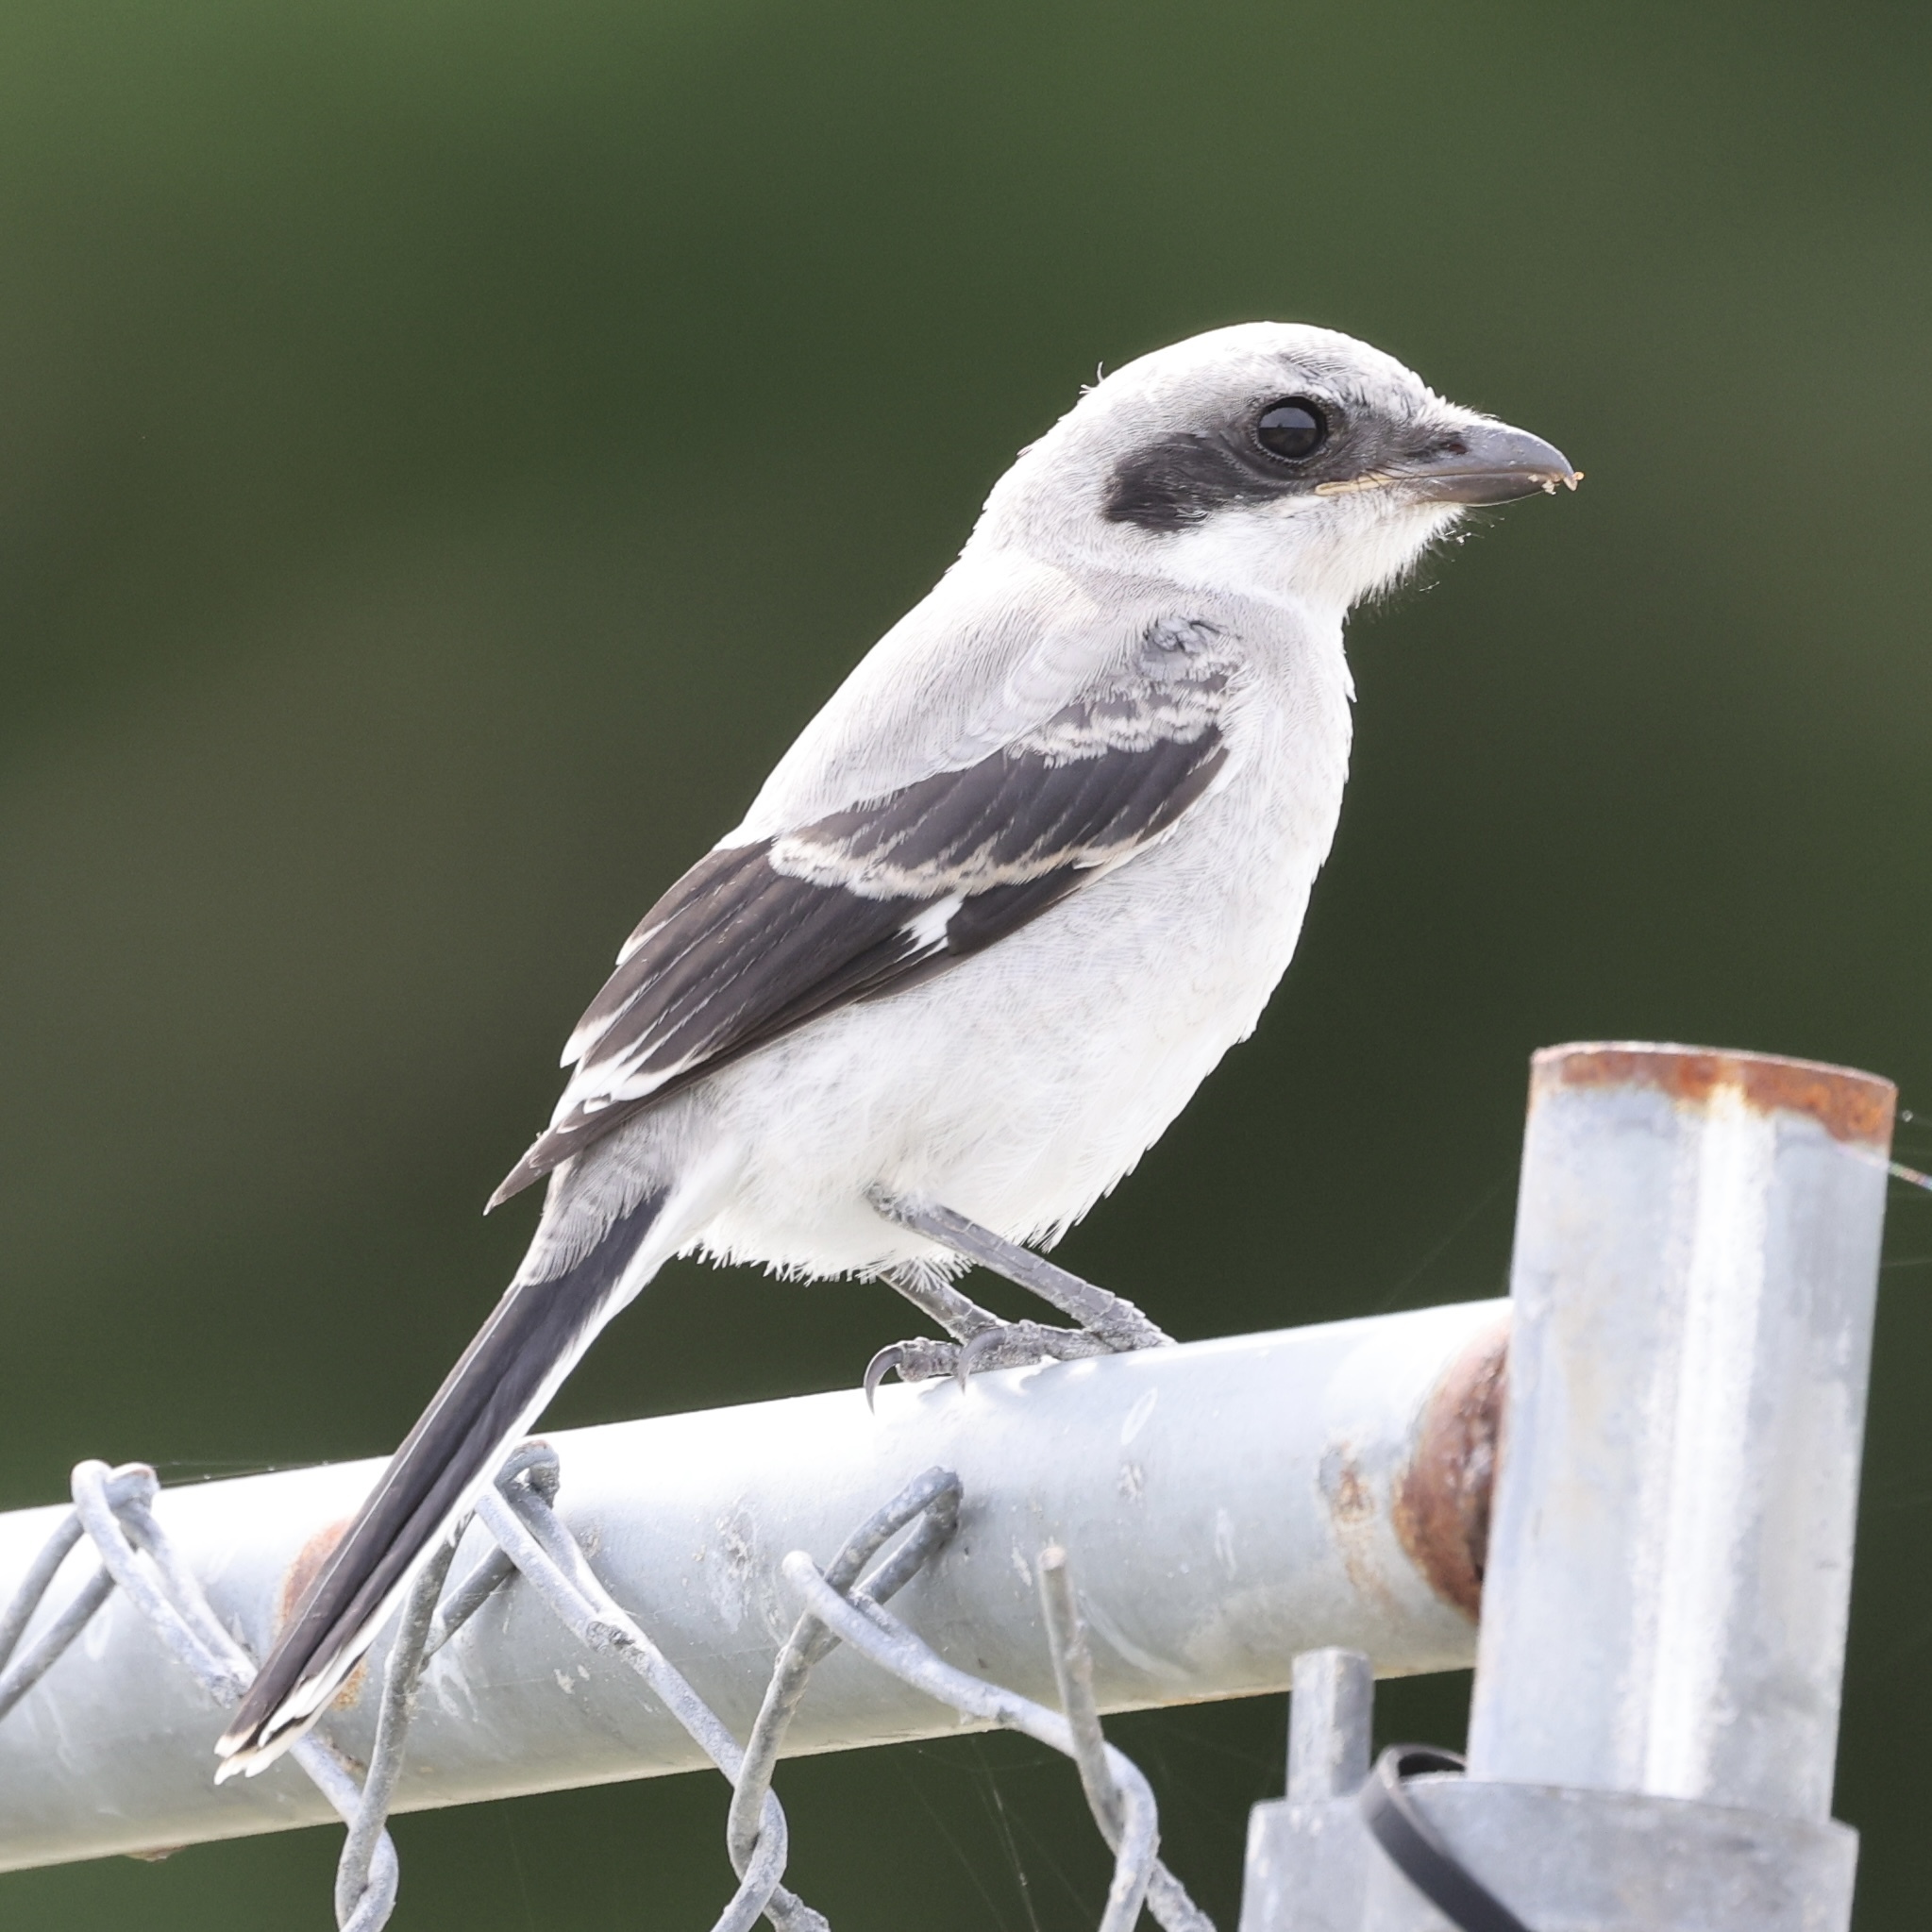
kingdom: Animalia
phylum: Chordata
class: Aves
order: Passeriformes
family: Laniidae
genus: Lanius
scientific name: Lanius ludovicianus
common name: Loggerhead shrike
